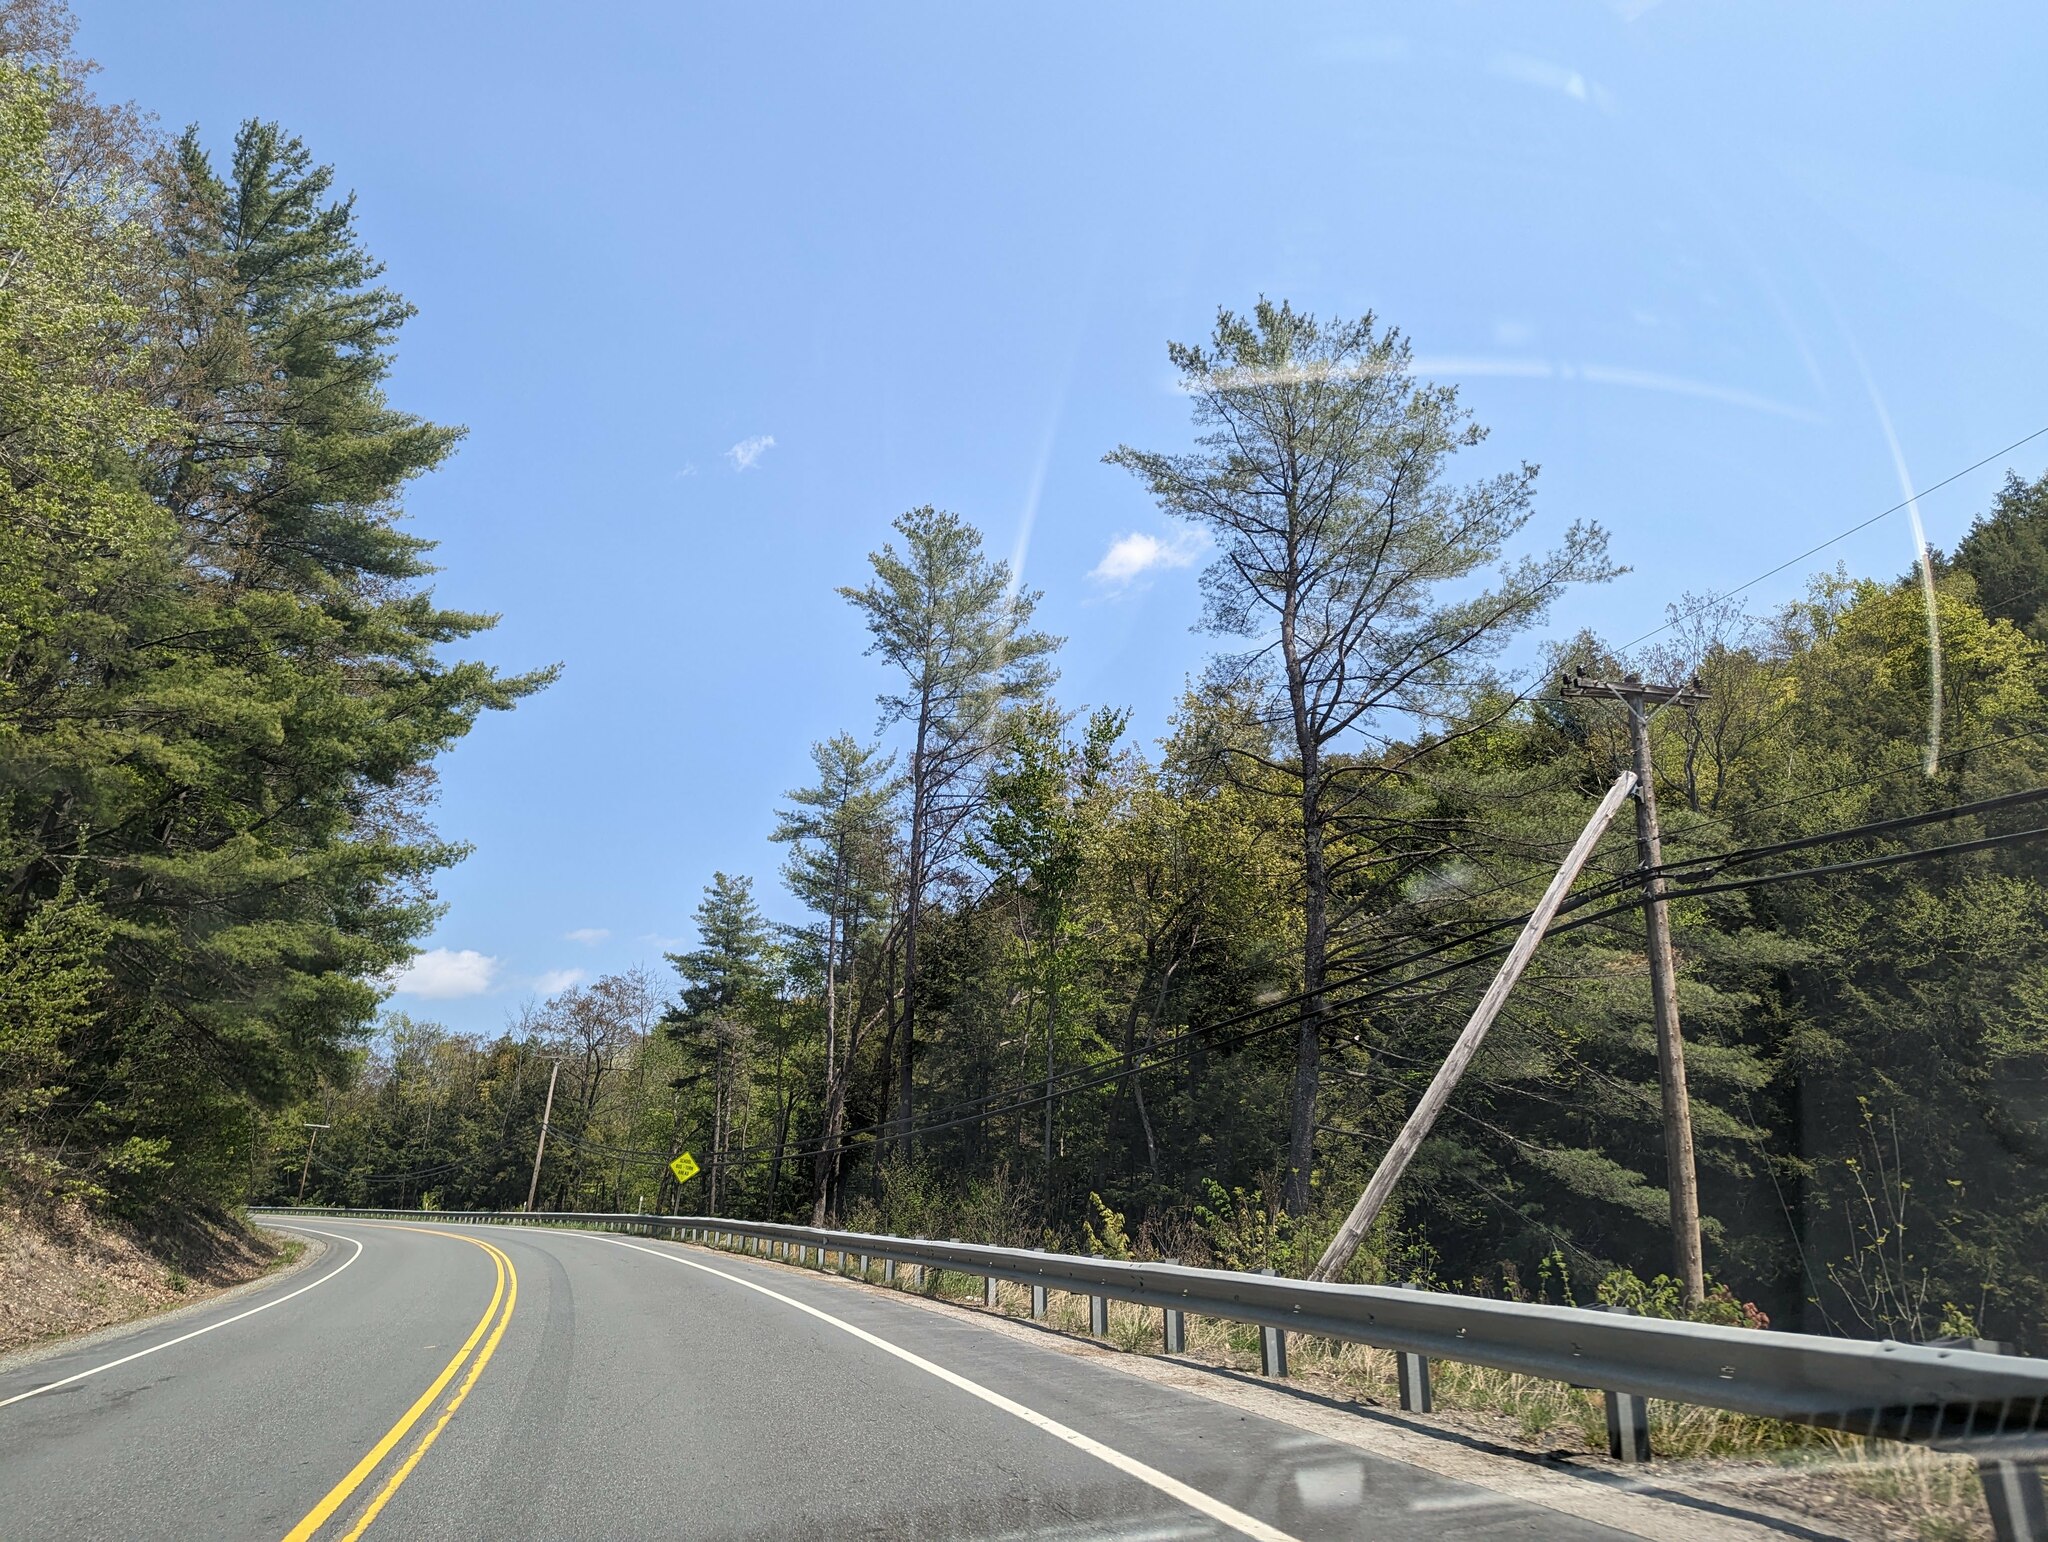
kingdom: Plantae
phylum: Tracheophyta
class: Pinopsida
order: Pinales
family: Pinaceae
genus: Pinus
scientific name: Pinus strobus
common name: Weymouth pine
